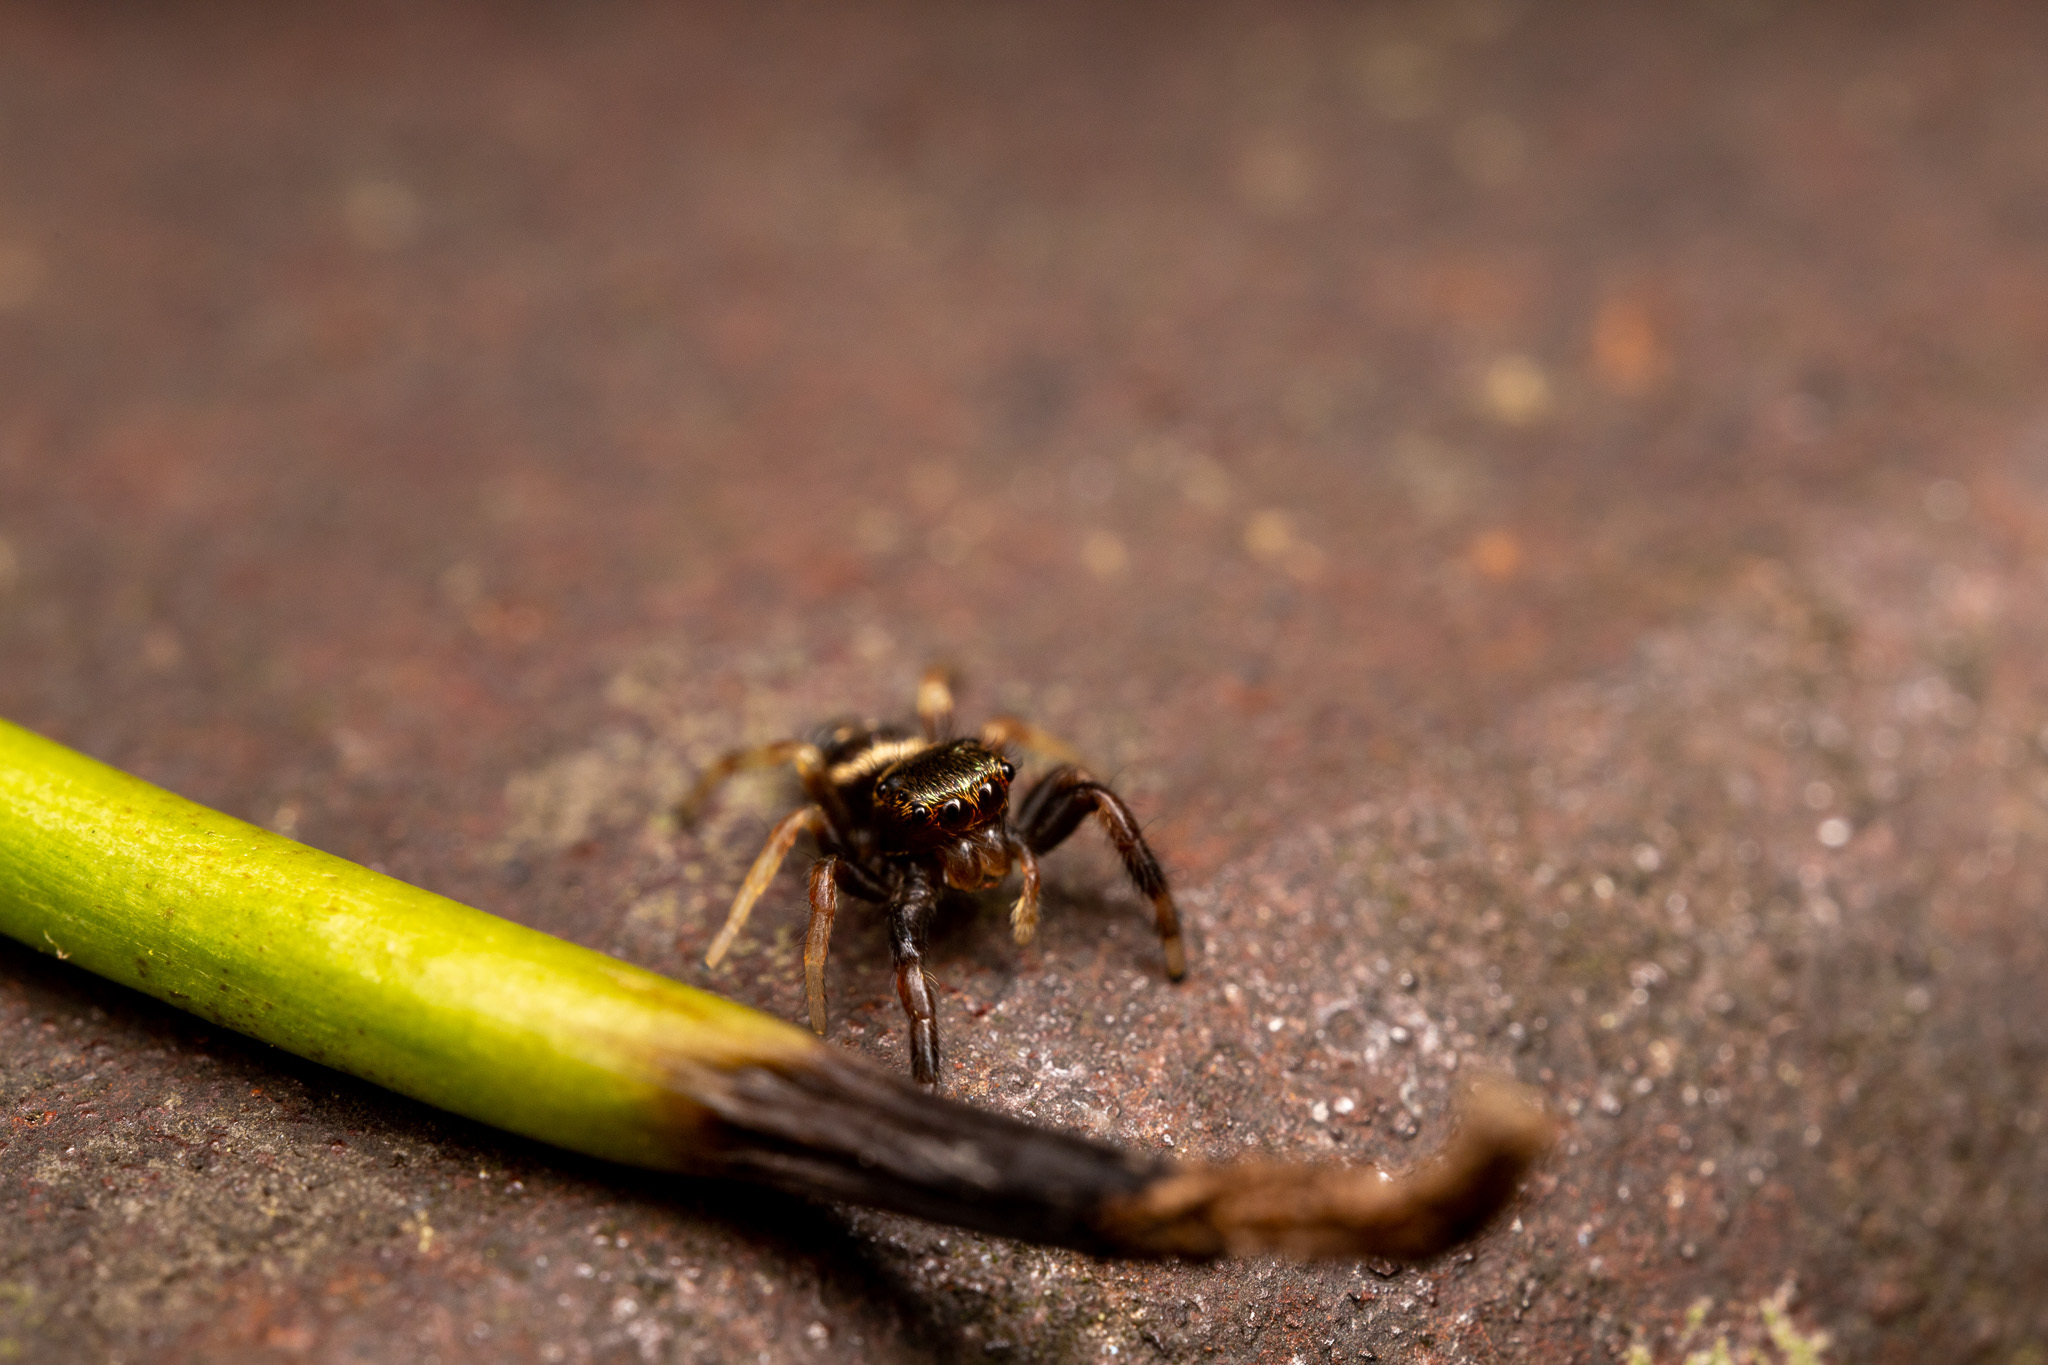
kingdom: Animalia
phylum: Arthropoda
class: Arachnida
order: Araneae
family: Salticidae
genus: Paraphidippus
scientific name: Paraphidippus aurantius
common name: Jumping spiders
